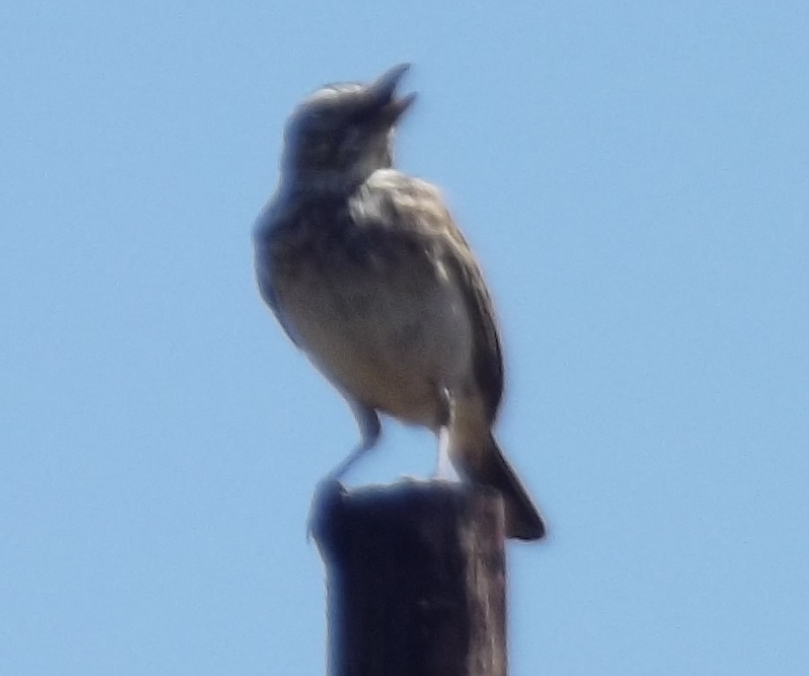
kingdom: Animalia
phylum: Chordata
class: Aves
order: Passeriformes
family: Alaudidae
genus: Calendulauda
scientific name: Calendulauda sabota
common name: Sabota lark
